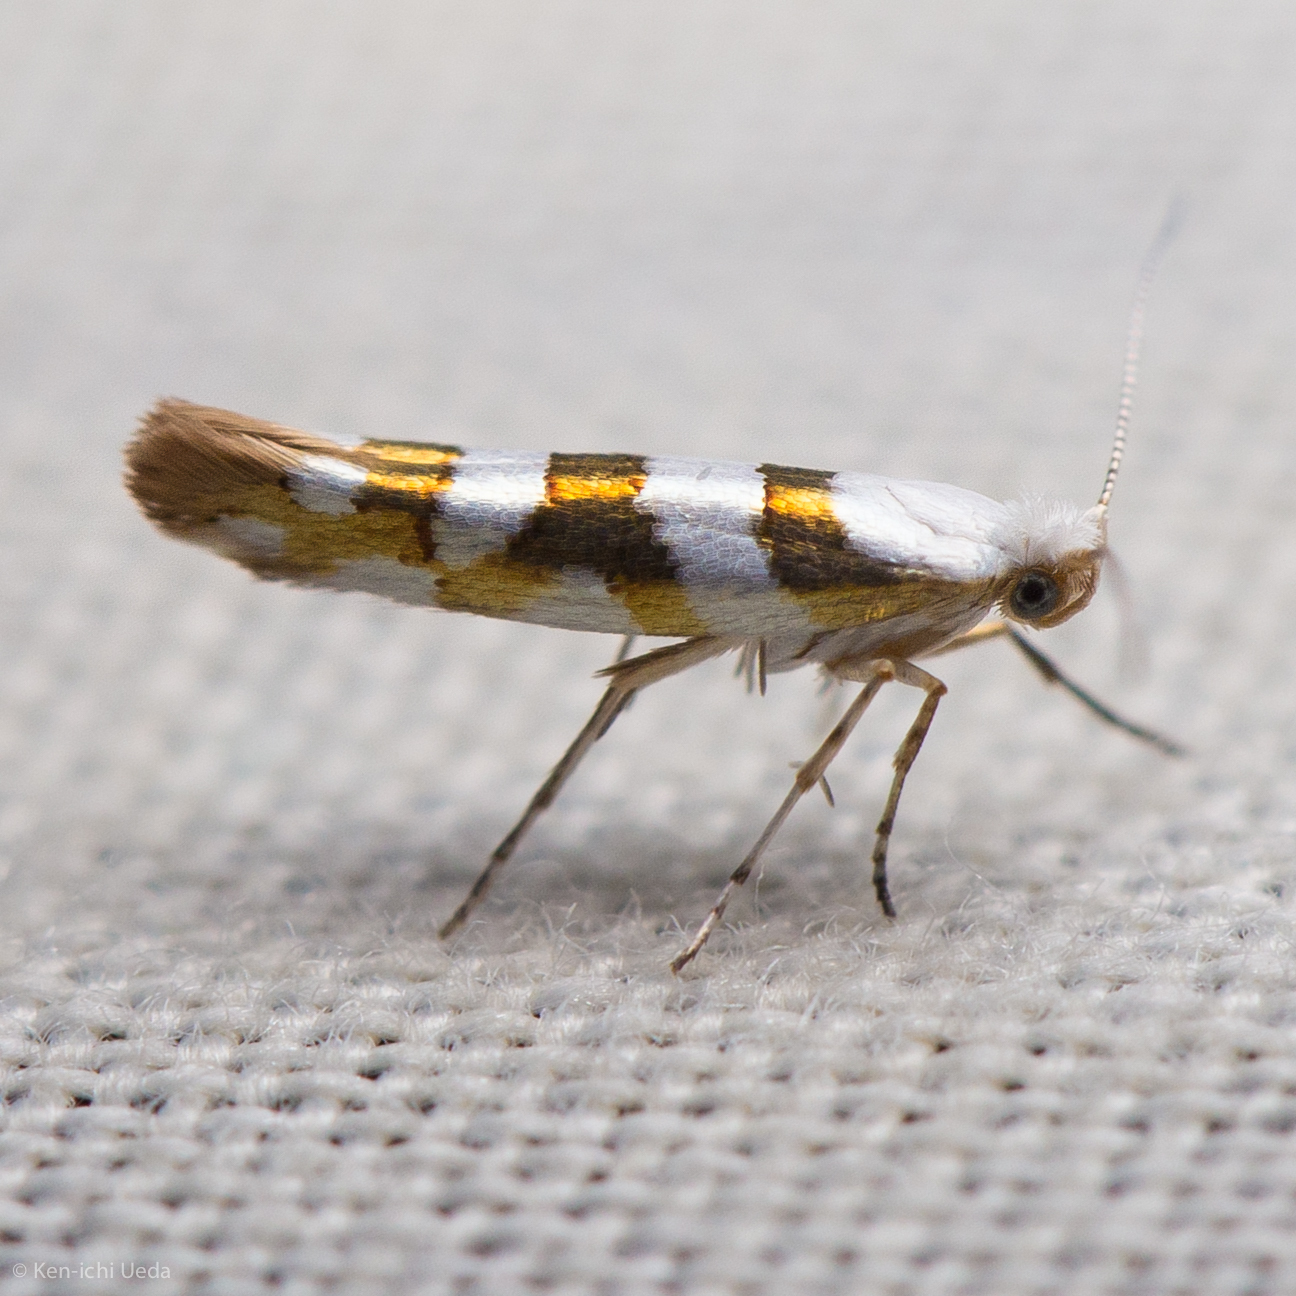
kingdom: Animalia
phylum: Arthropoda
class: Insecta
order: Lepidoptera
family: Argyresthiidae
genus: Argyresthia
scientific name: Argyresthia calliphanes
